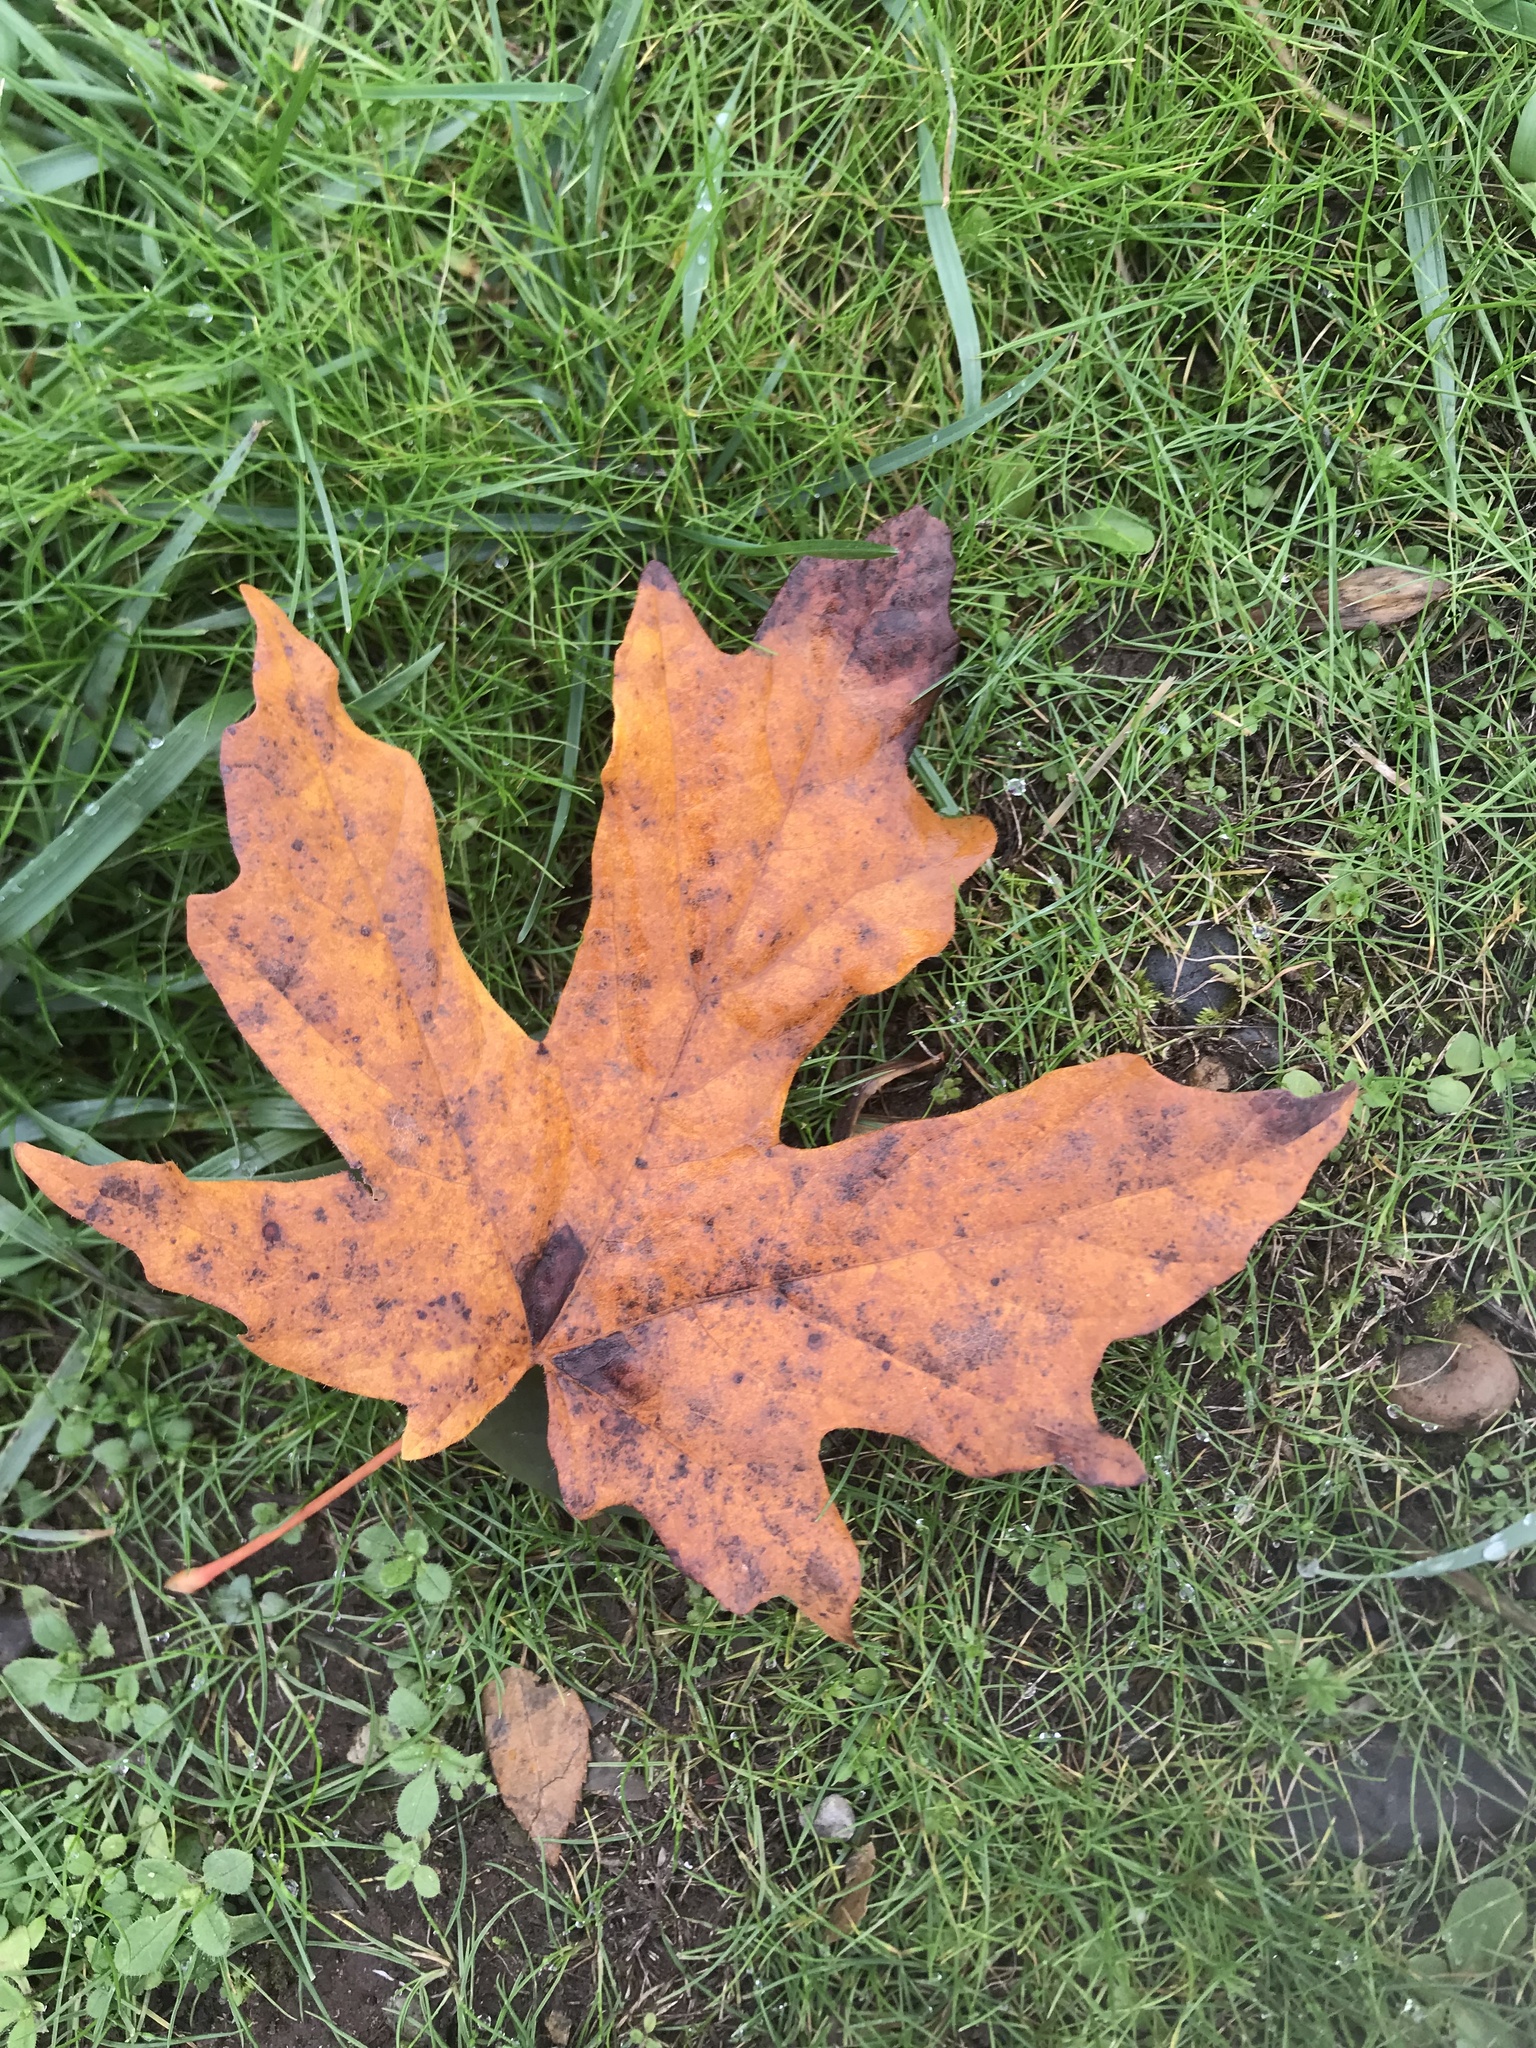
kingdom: Plantae
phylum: Tracheophyta
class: Magnoliopsida
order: Sapindales
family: Sapindaceae
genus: Acer
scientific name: Acer macrophyllum
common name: Oregon maple
